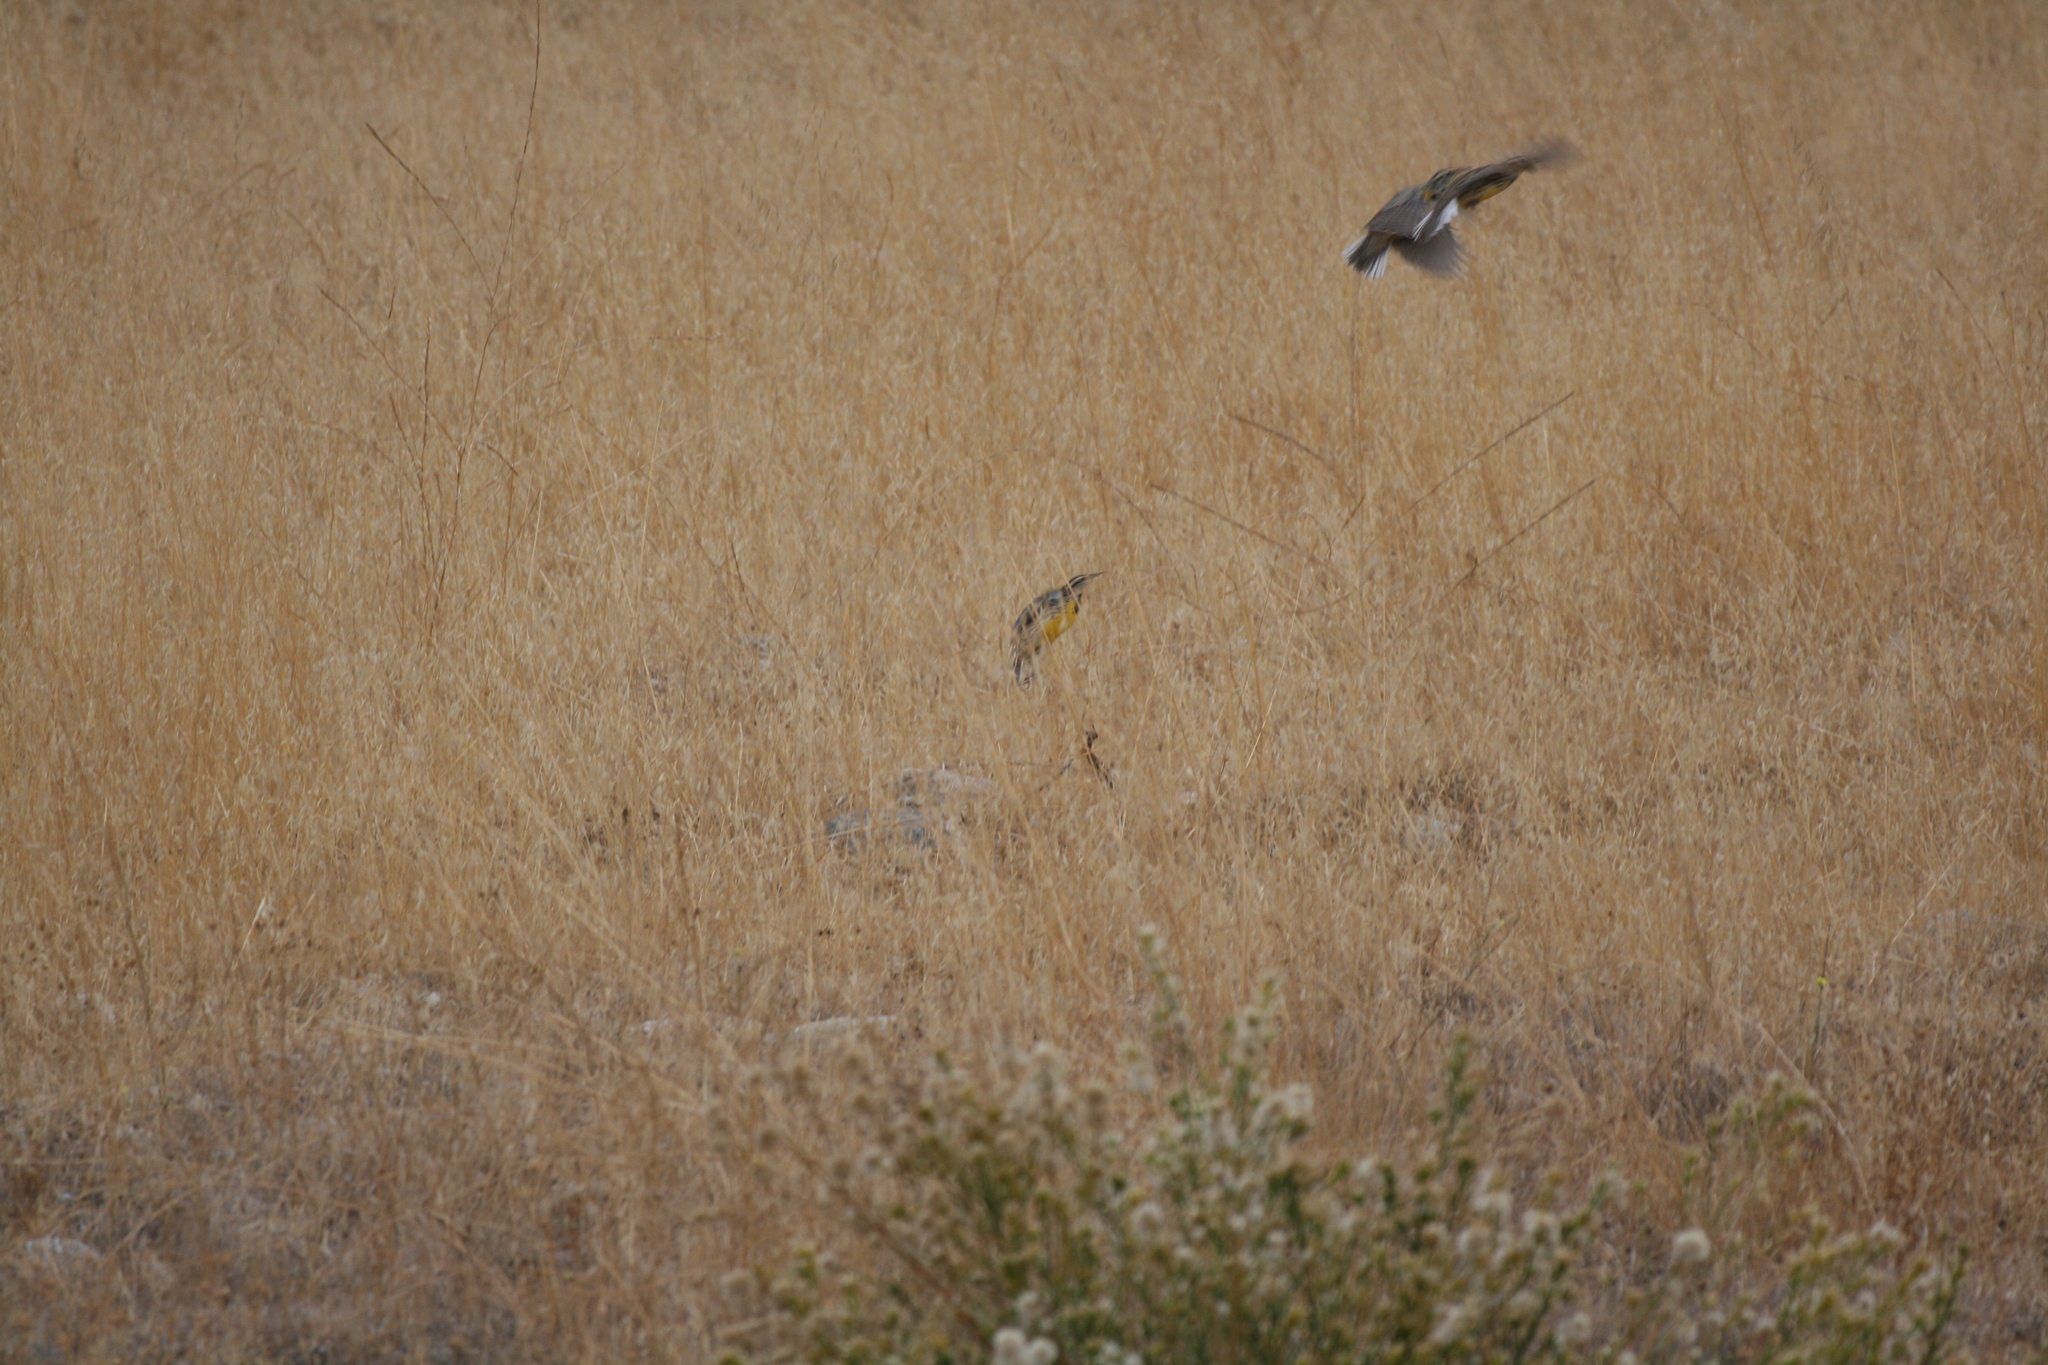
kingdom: Animalia
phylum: Chordata
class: Aves
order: Passeriformes
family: Icteridae
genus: Sturnella
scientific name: Sturnella neglecta
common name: Western meadowlark
